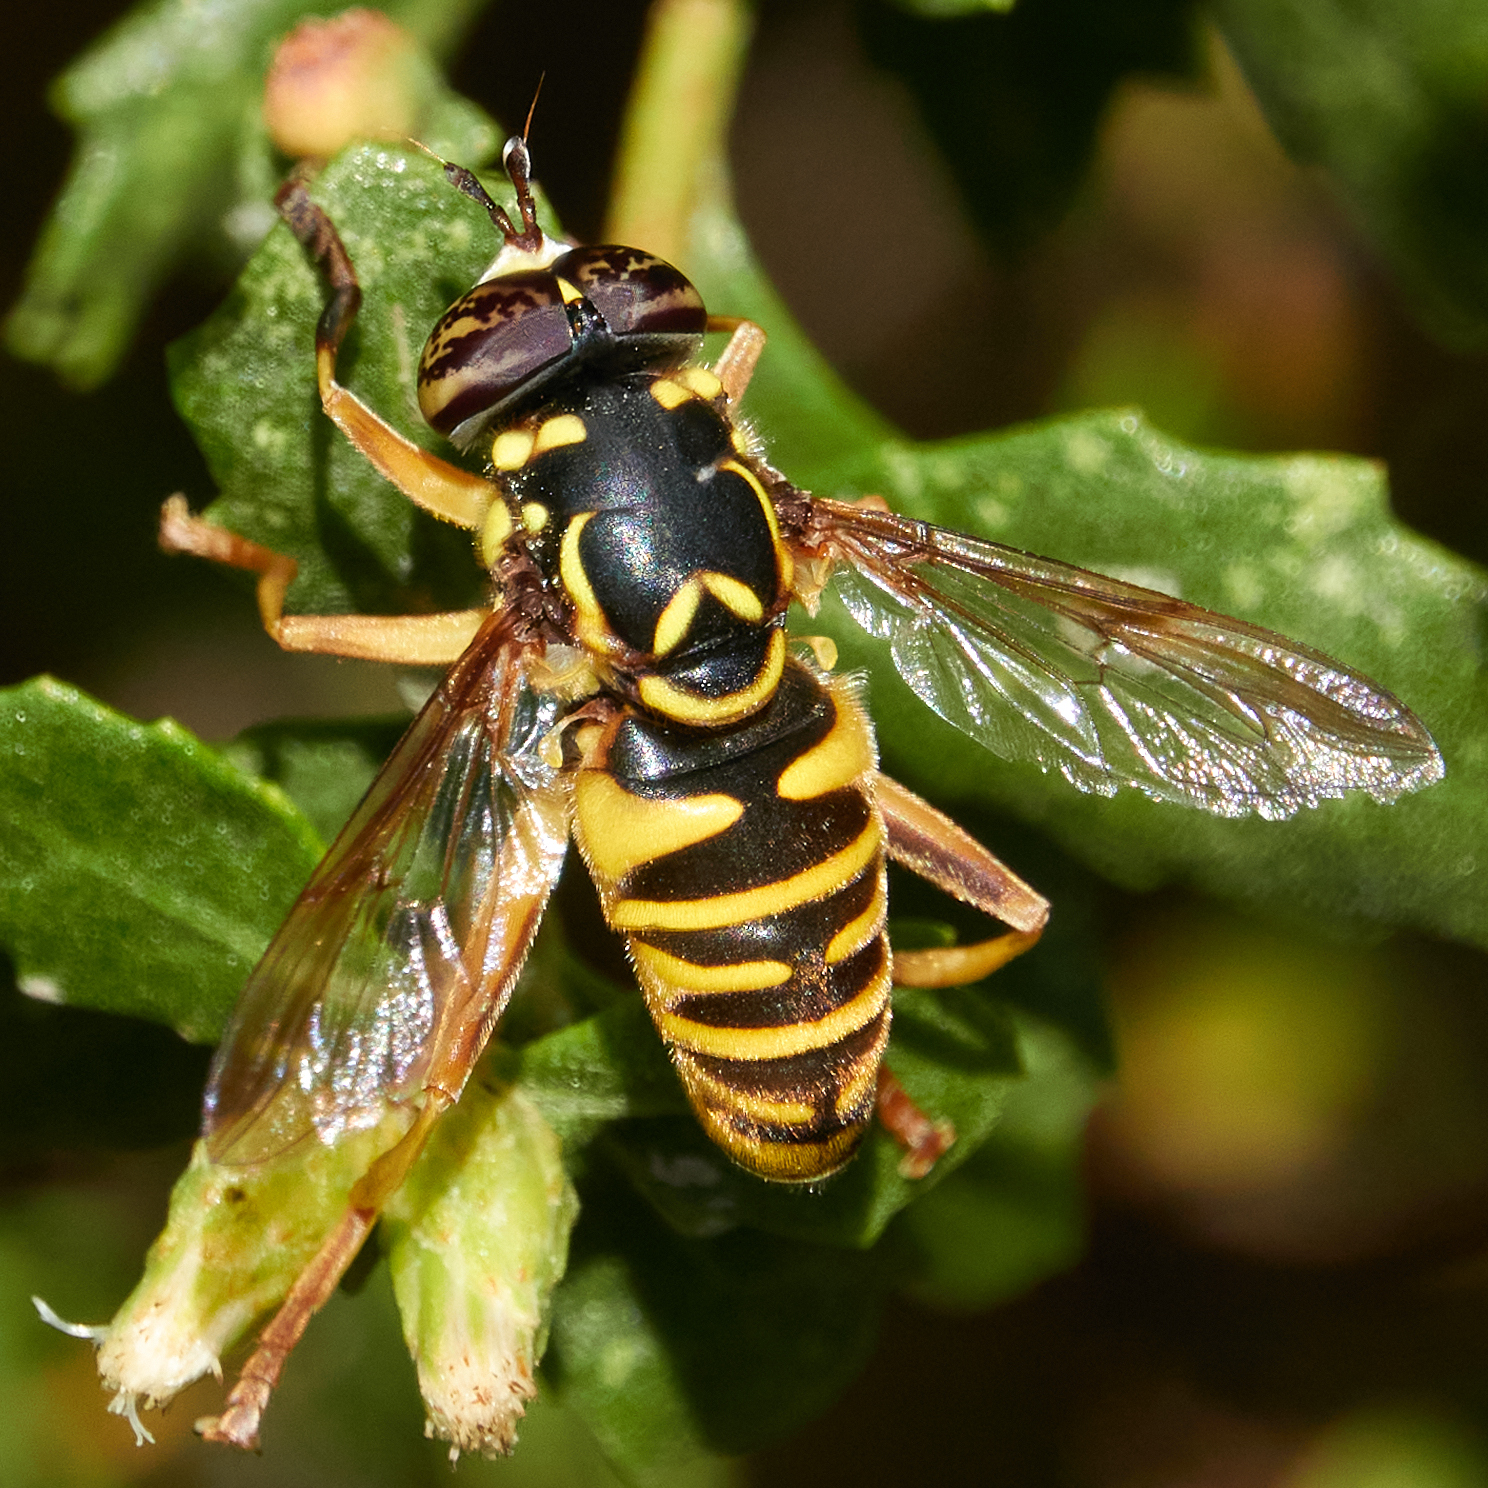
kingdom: Animalia
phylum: Arthropoda
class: Insecta
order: Diptera
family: Syrphidae
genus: Spilomyia
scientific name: Spilomyia interrupta
